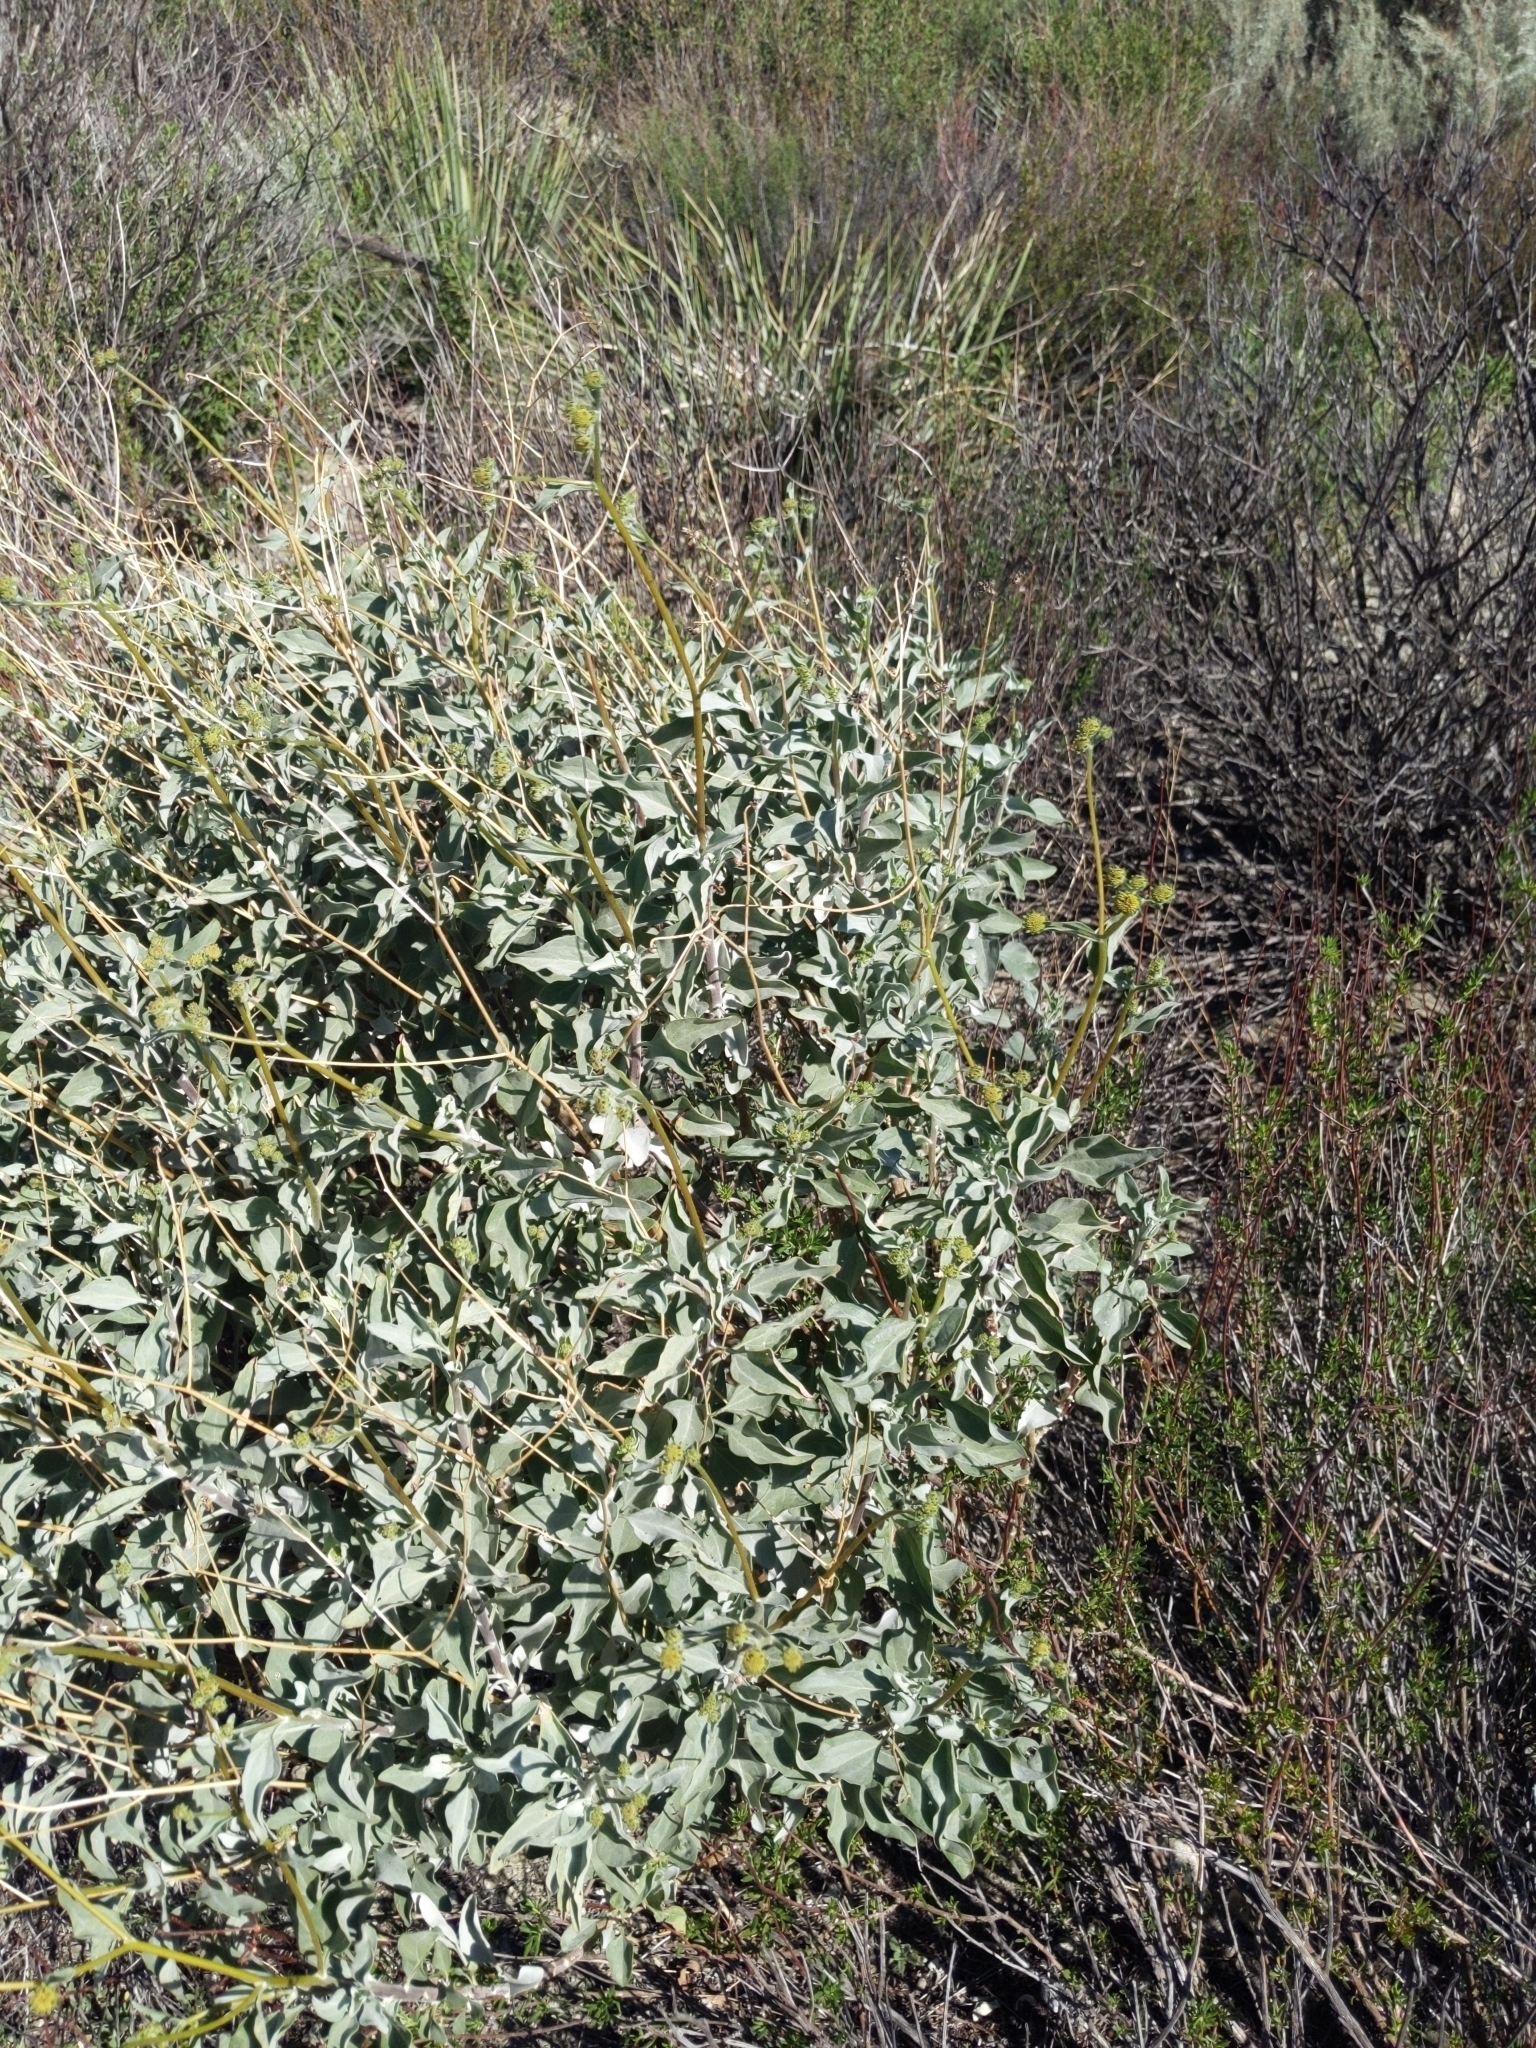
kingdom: Plantae
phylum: Tracheophyta
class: Magnoliopsida
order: Asterales
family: Asteraceae
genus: Encelia
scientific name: Encelia farinosa
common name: Brittlebush
